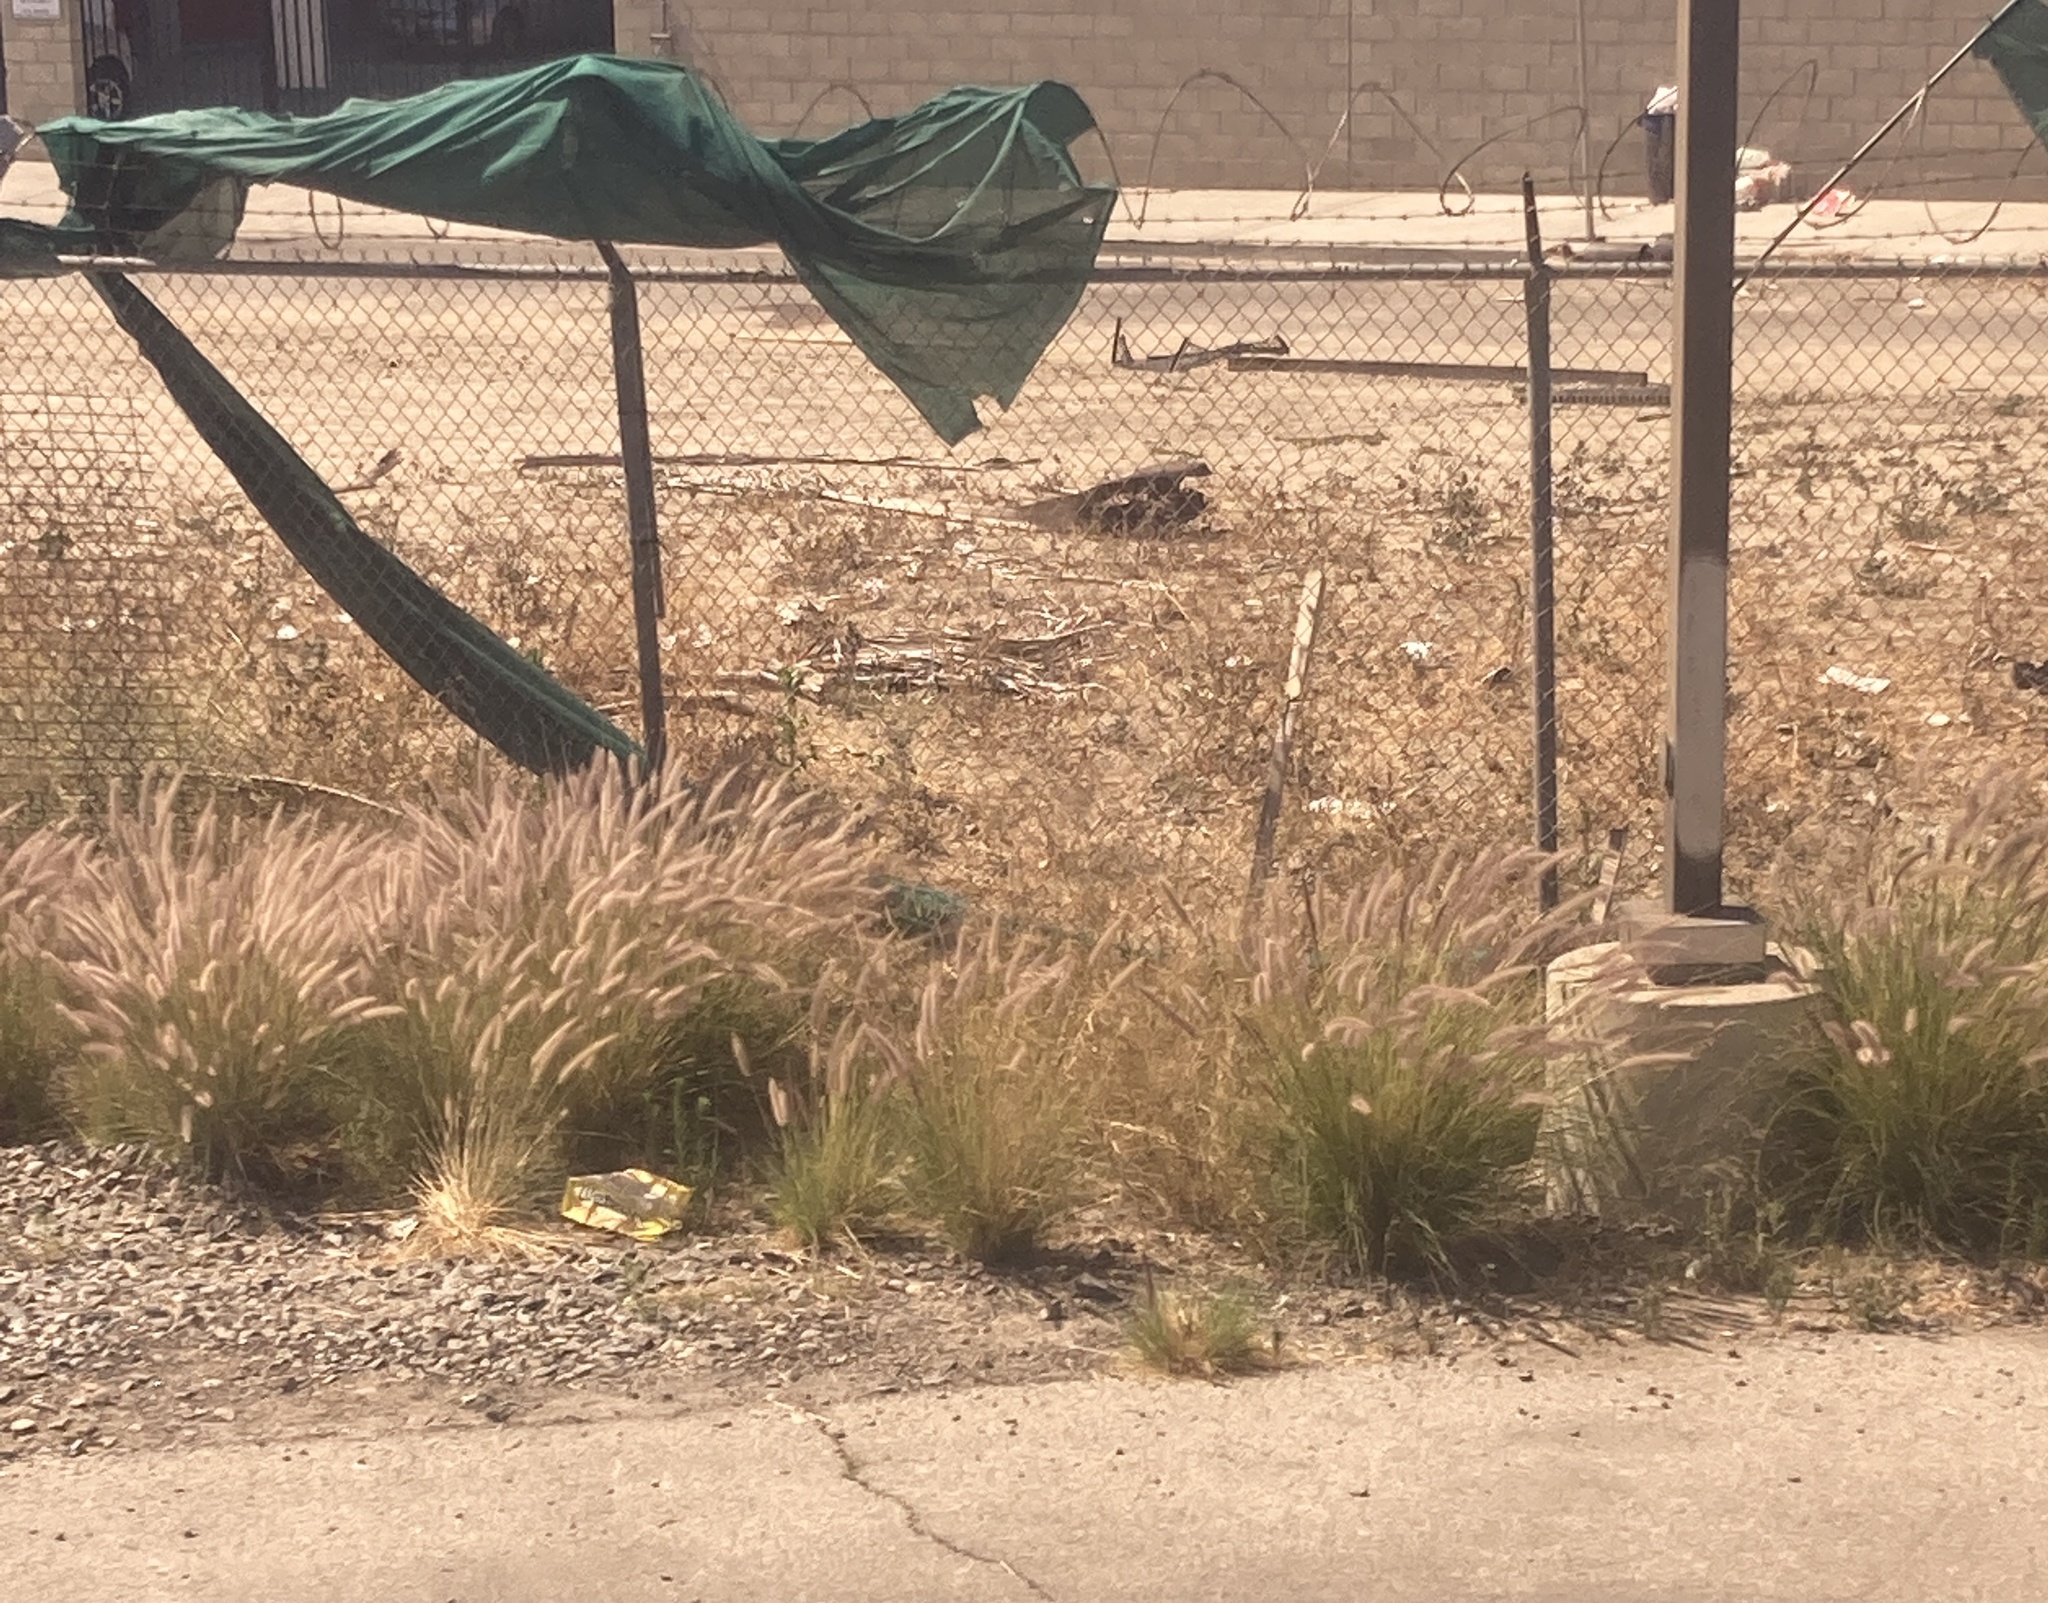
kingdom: Plantae
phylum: Tracheophyta
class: Liliopsida
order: Poales
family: Poaceae
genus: Cenchrus
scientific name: Cenchrus setaceus
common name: Crimson fountaingrass
